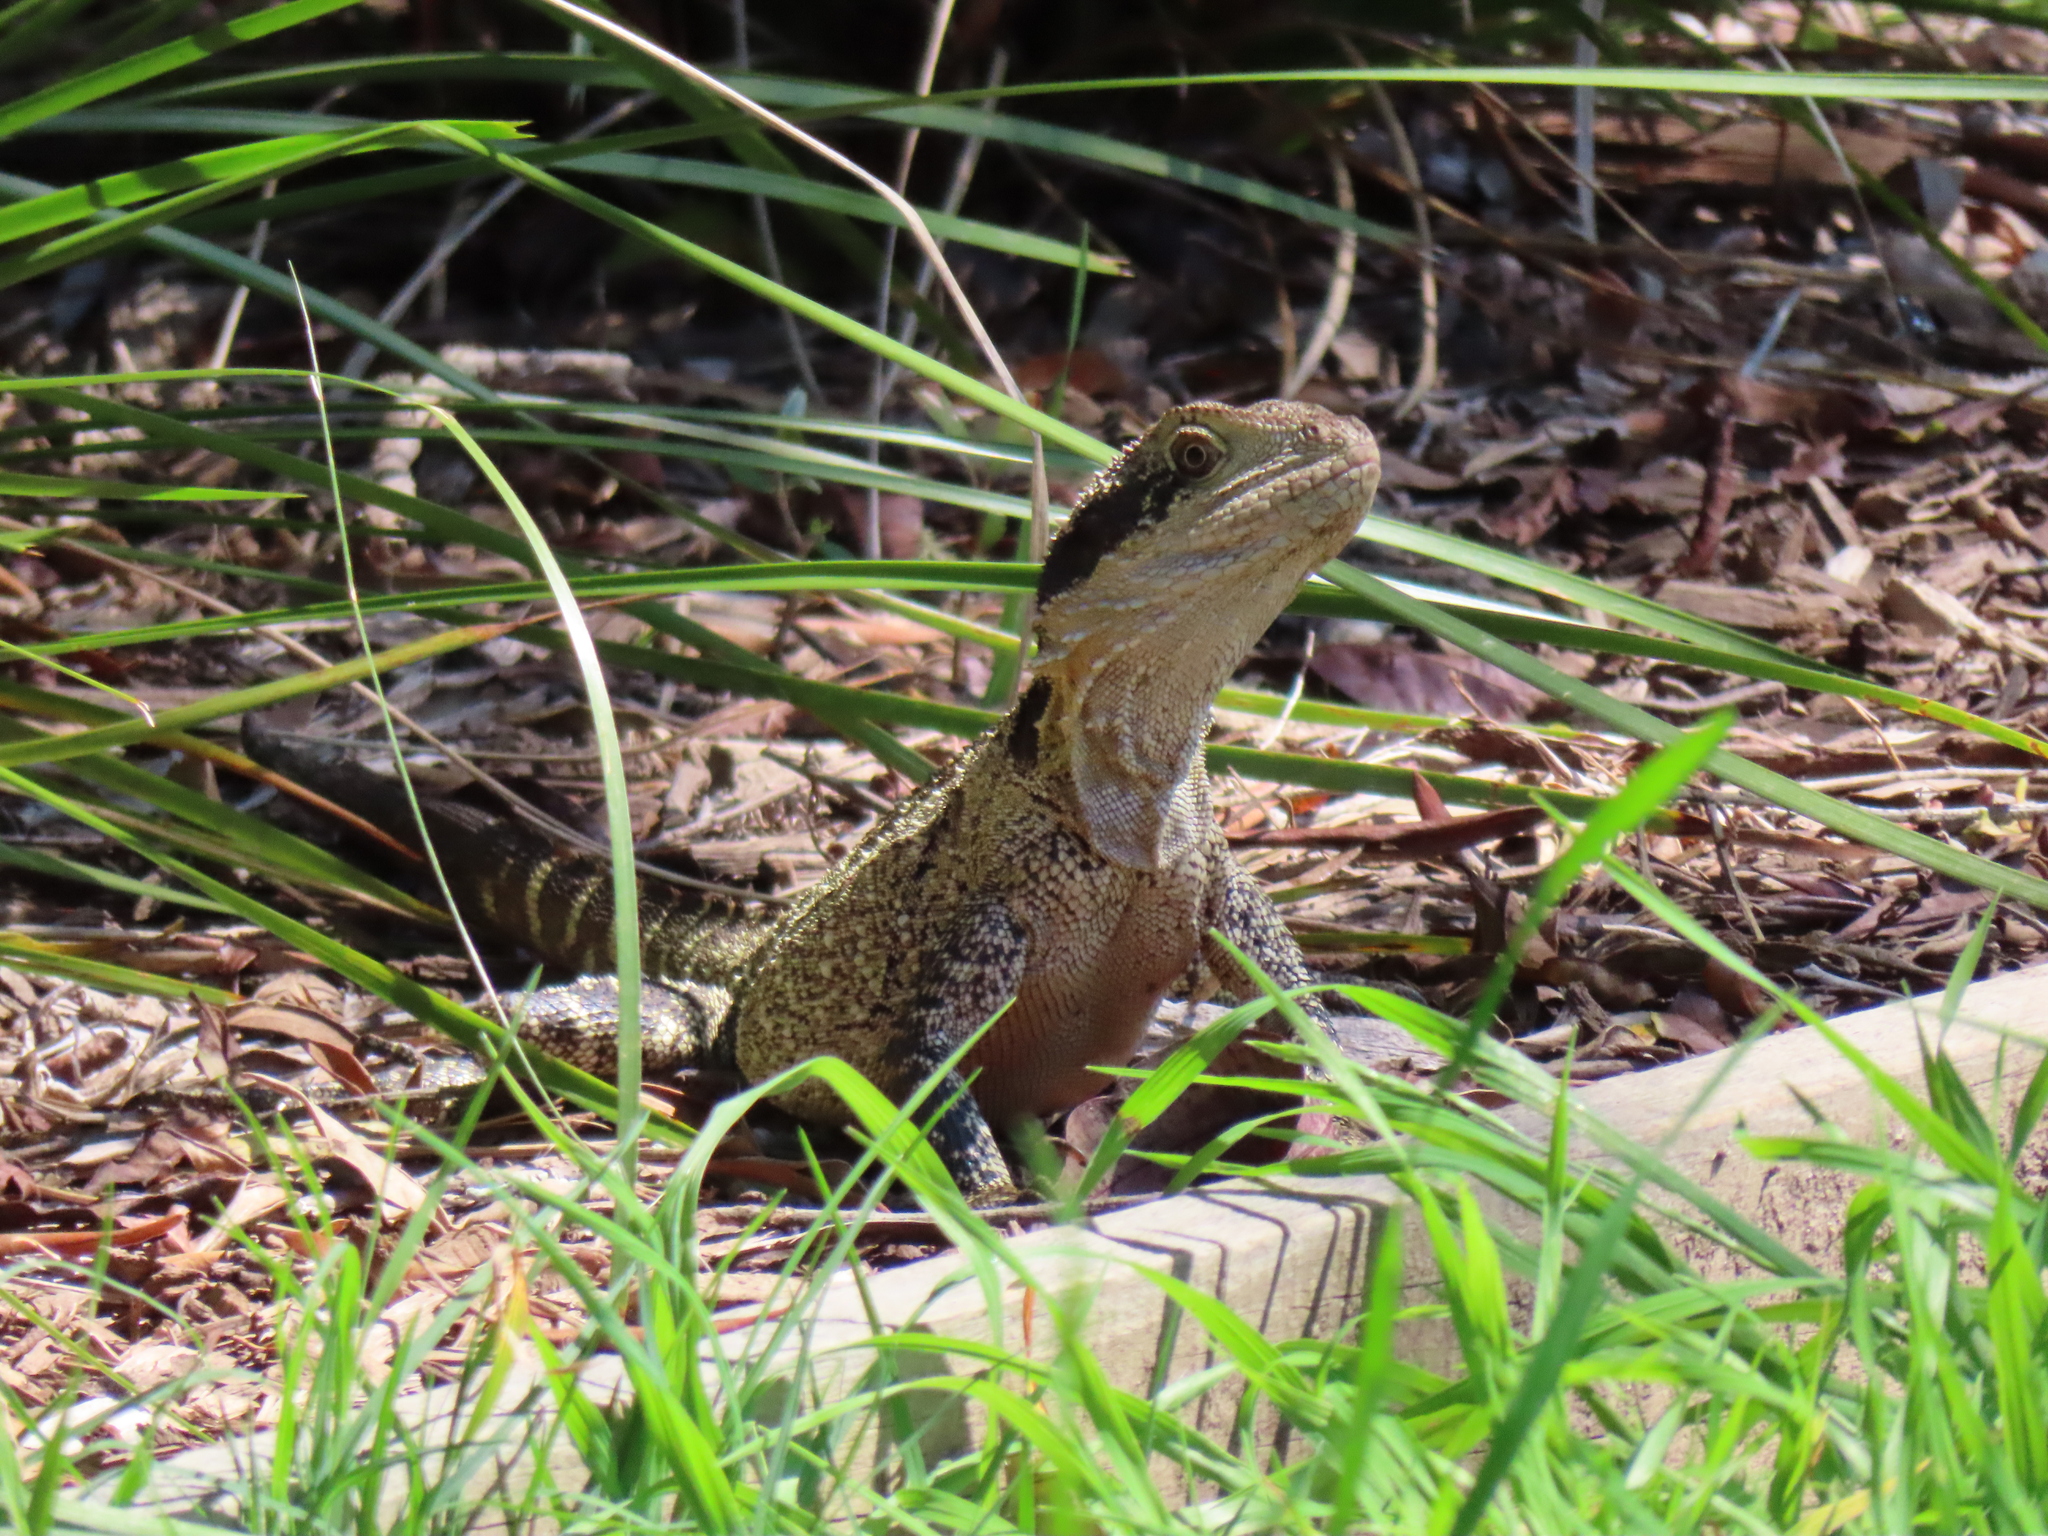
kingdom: Animalia
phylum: Chordata
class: Squamata
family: Agamidae
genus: Intellagama
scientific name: Intellagama lesueurii
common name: Eastern water dragon
